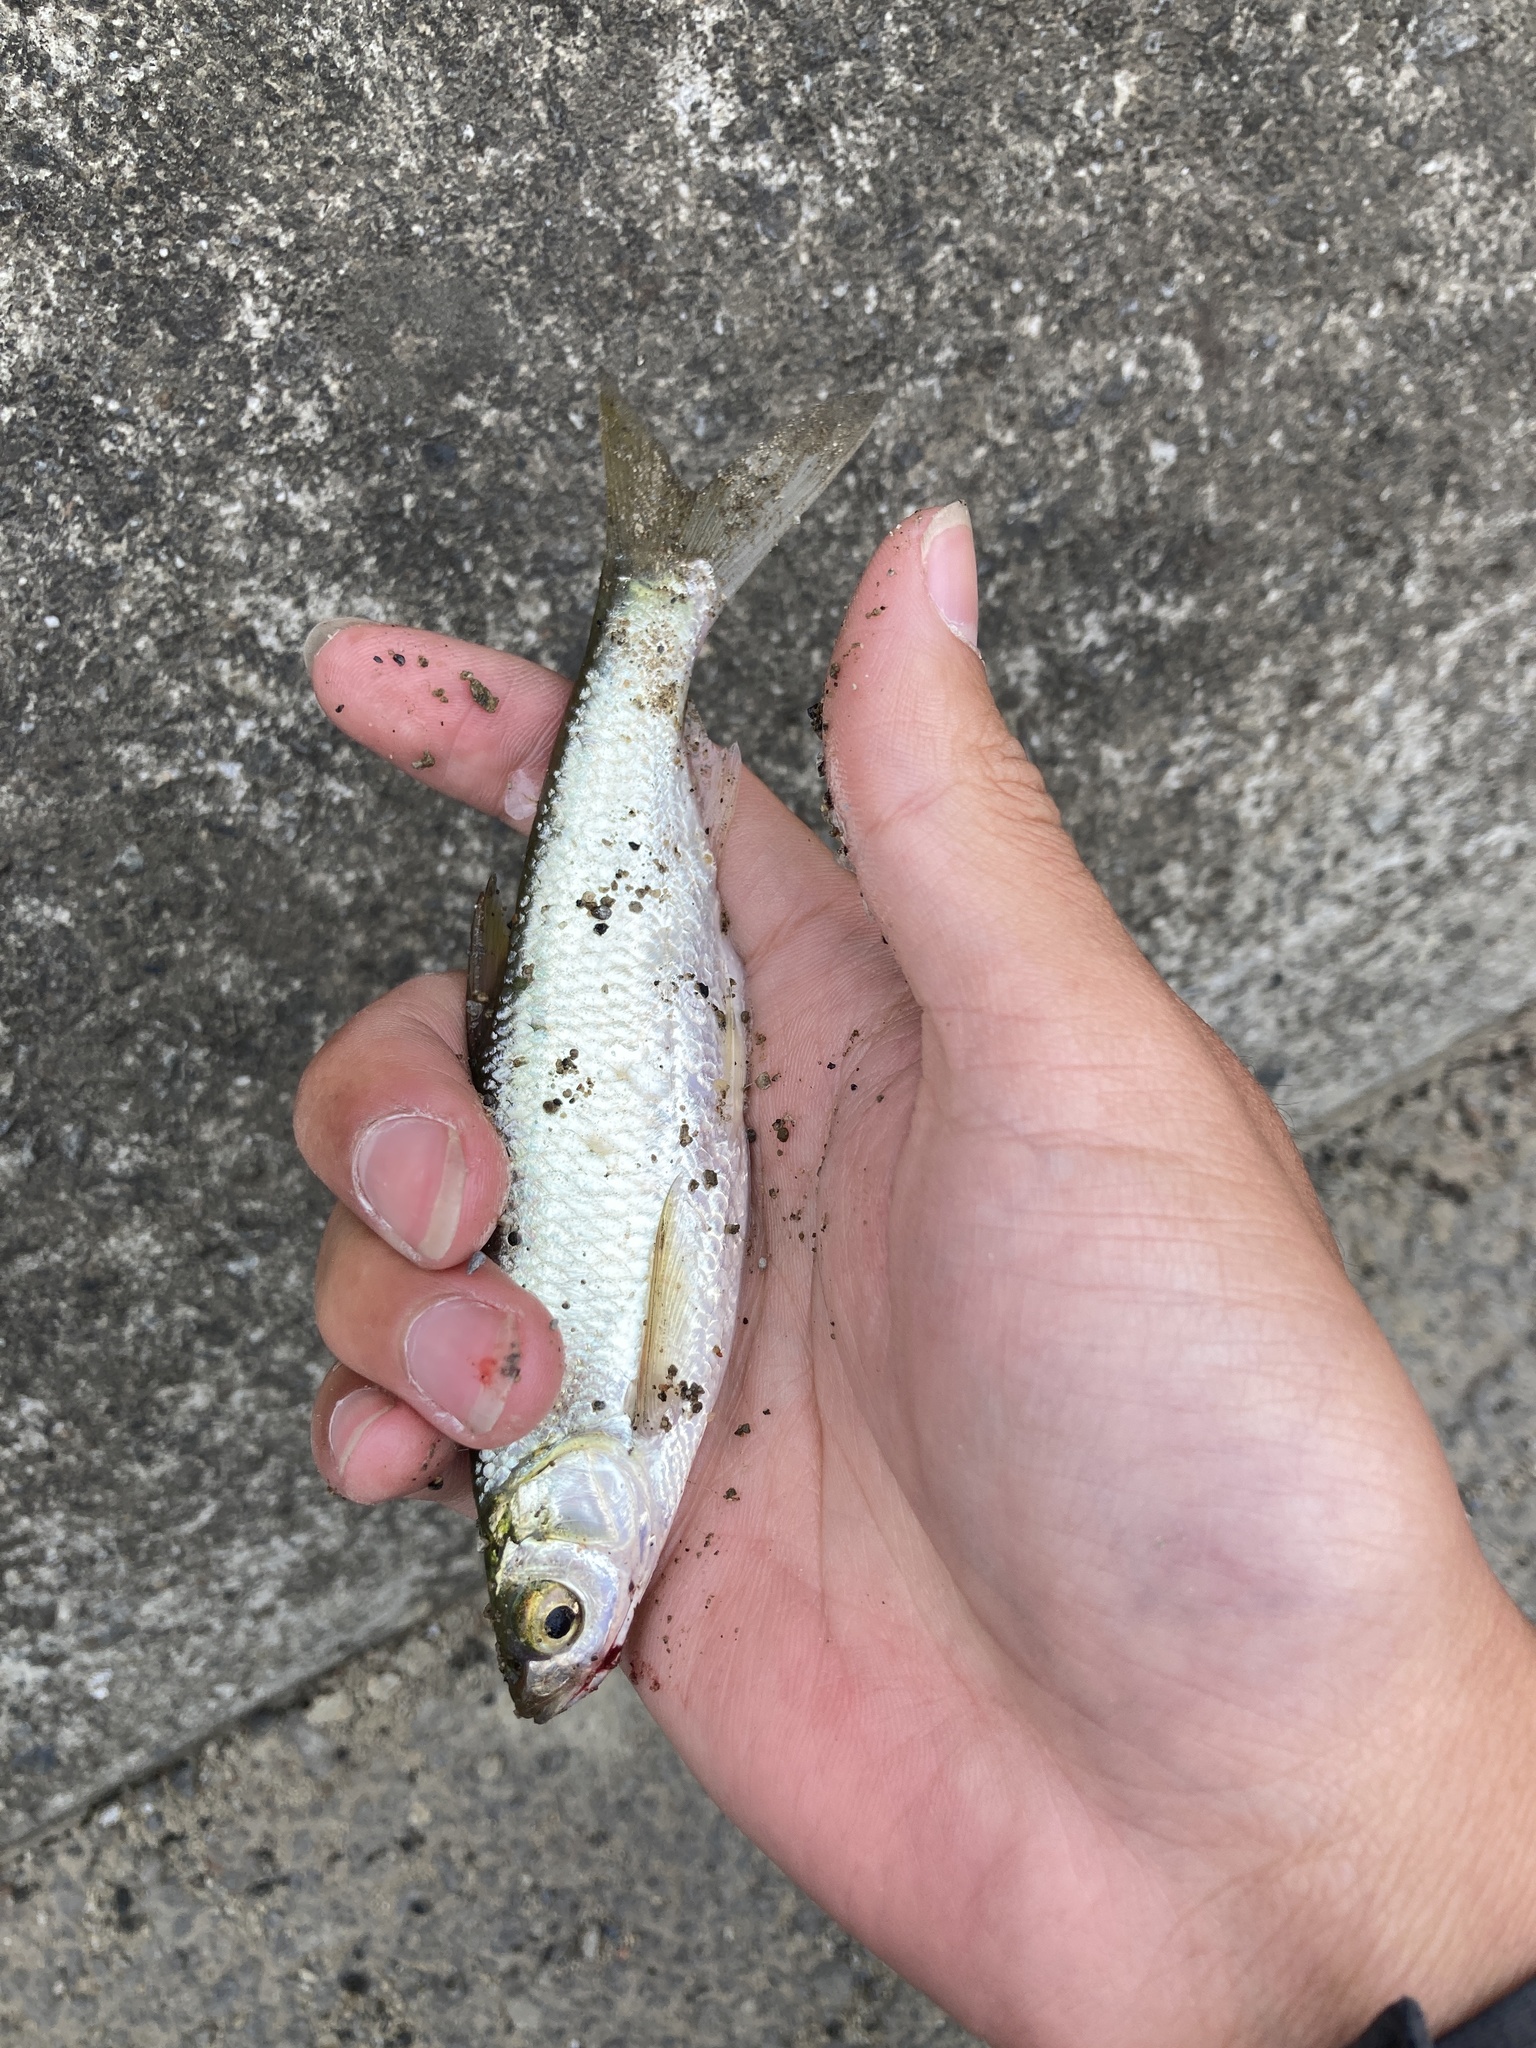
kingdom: Animalia
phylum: Chordata
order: Cypriniformes
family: Cyprinidae
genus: Hemiculter
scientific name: Hemiculter leucisculus
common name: Common sawbelly
